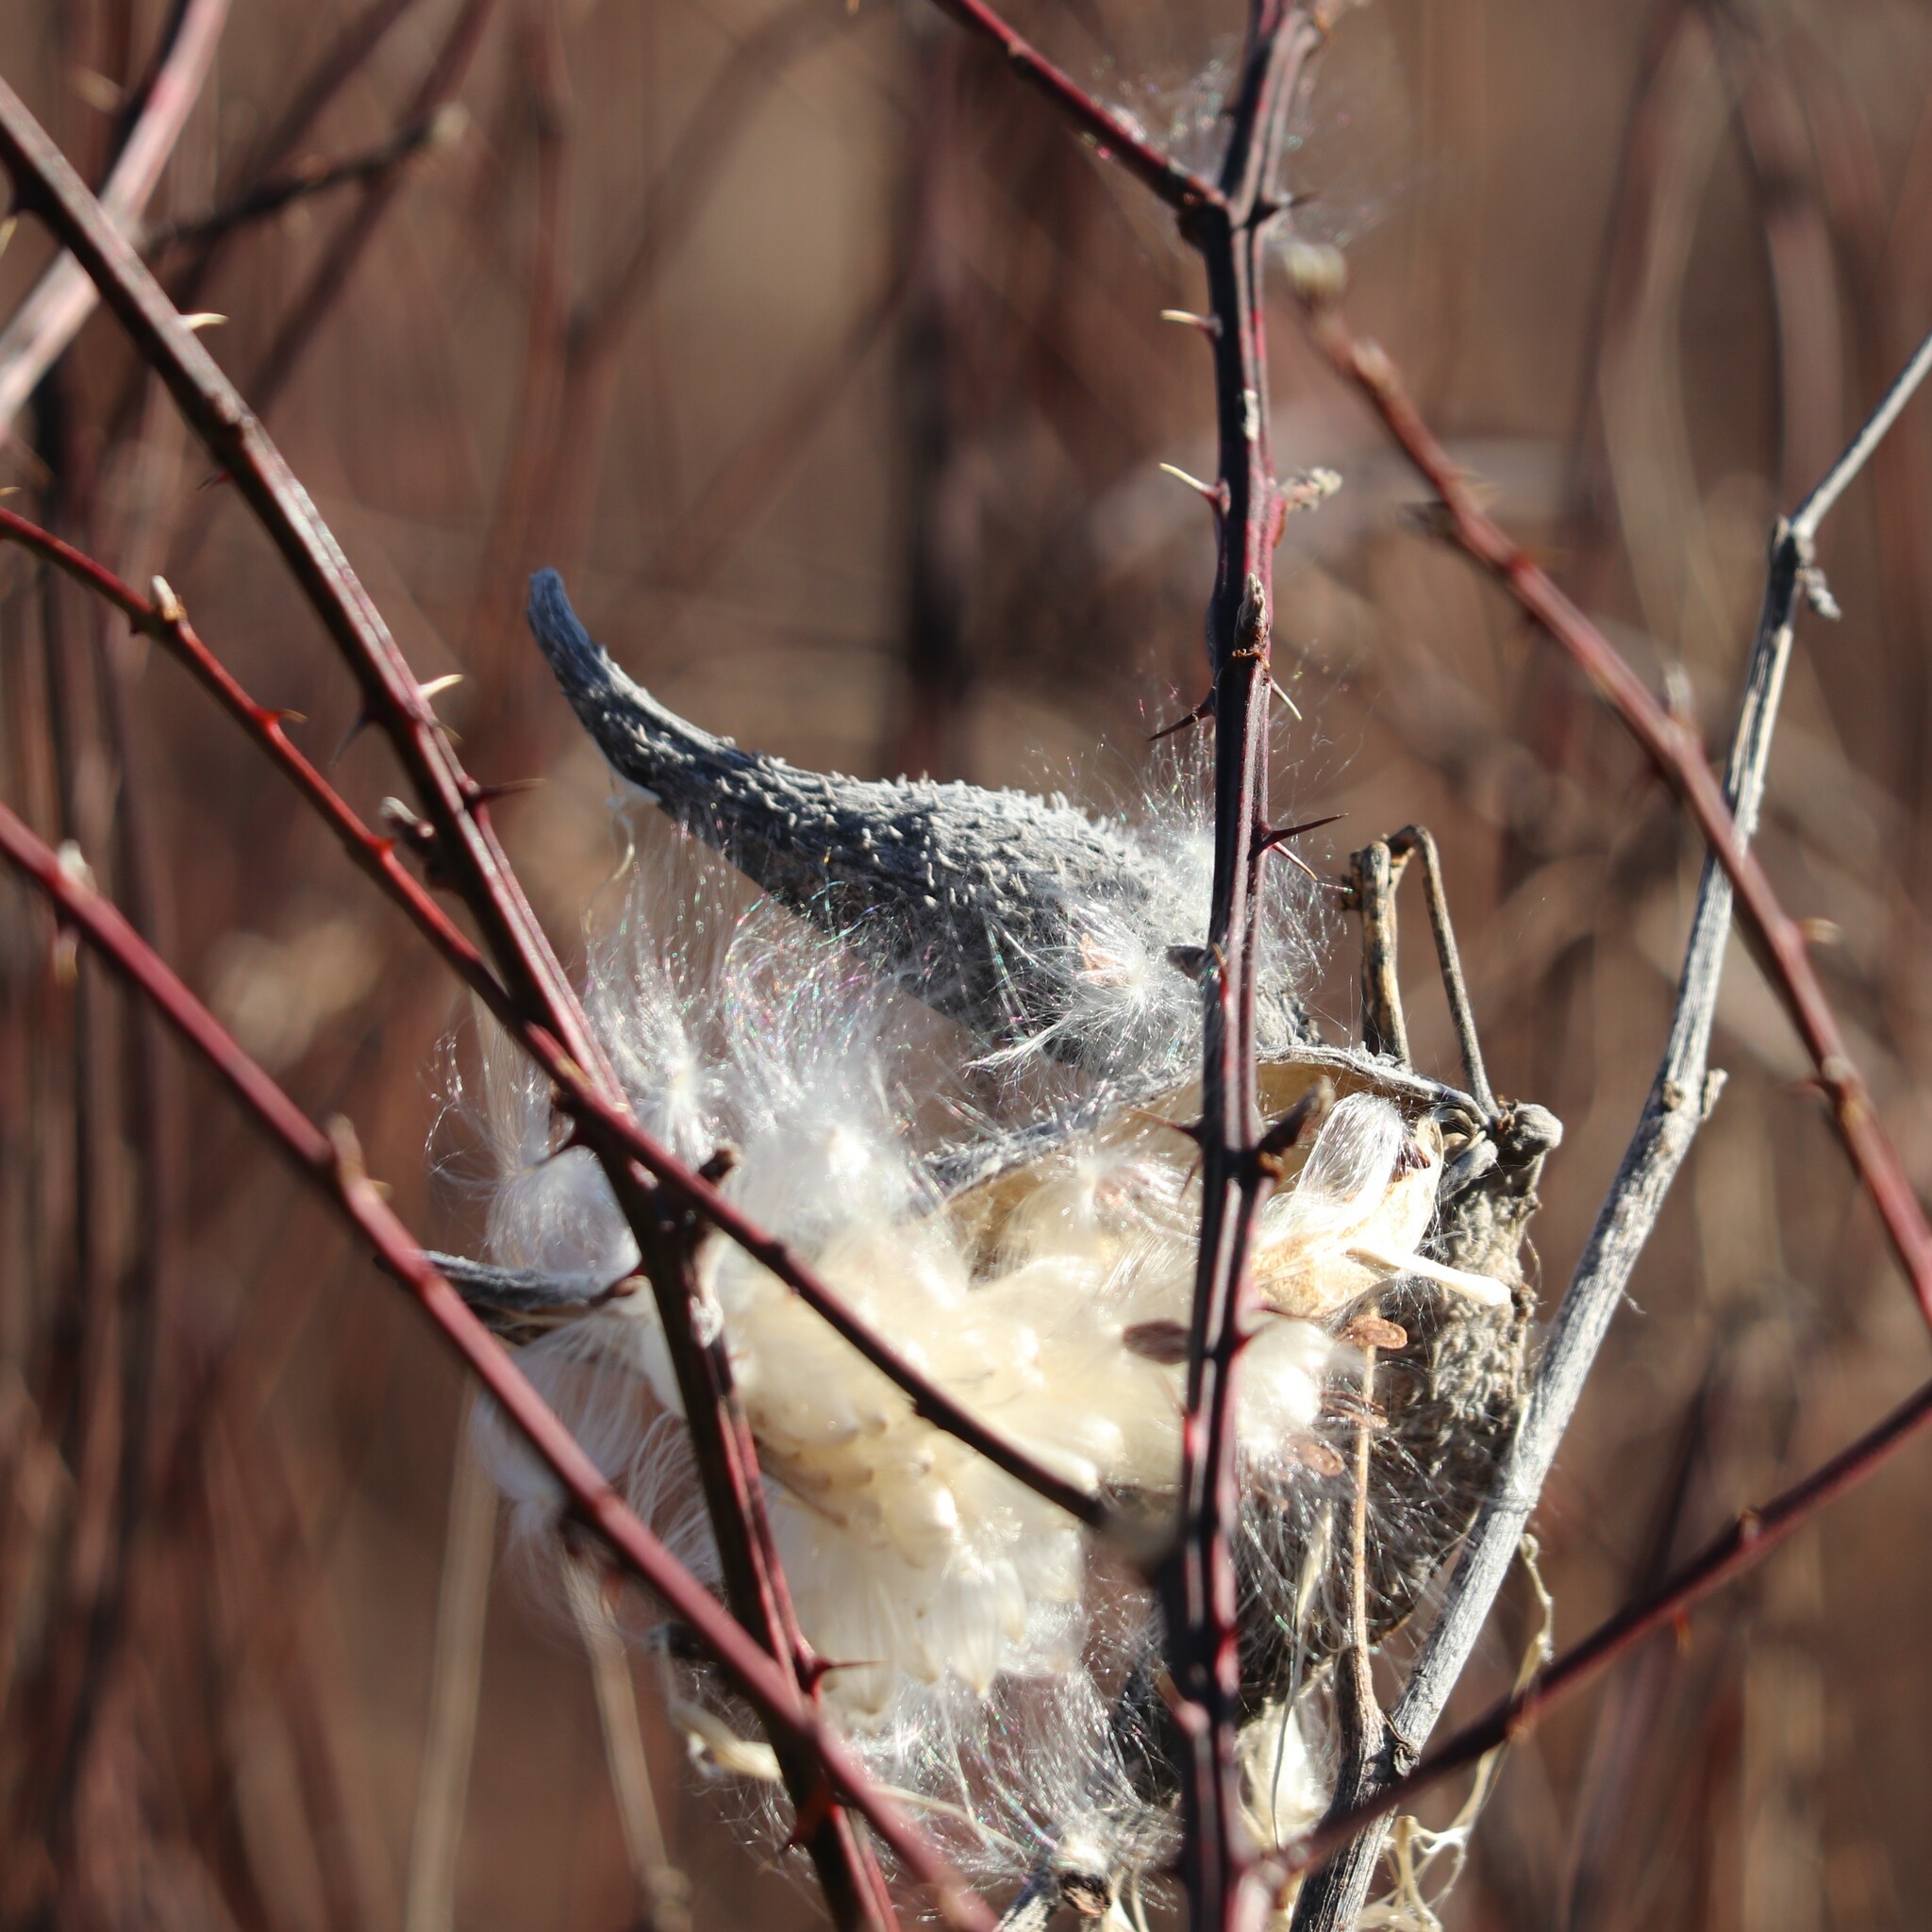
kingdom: Plantae
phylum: Tracheophyta
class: Magnoliopsida
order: Gentianales
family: Apocynaceae
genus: Asclepias
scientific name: Asclepias syriaca
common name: Common milkweed
